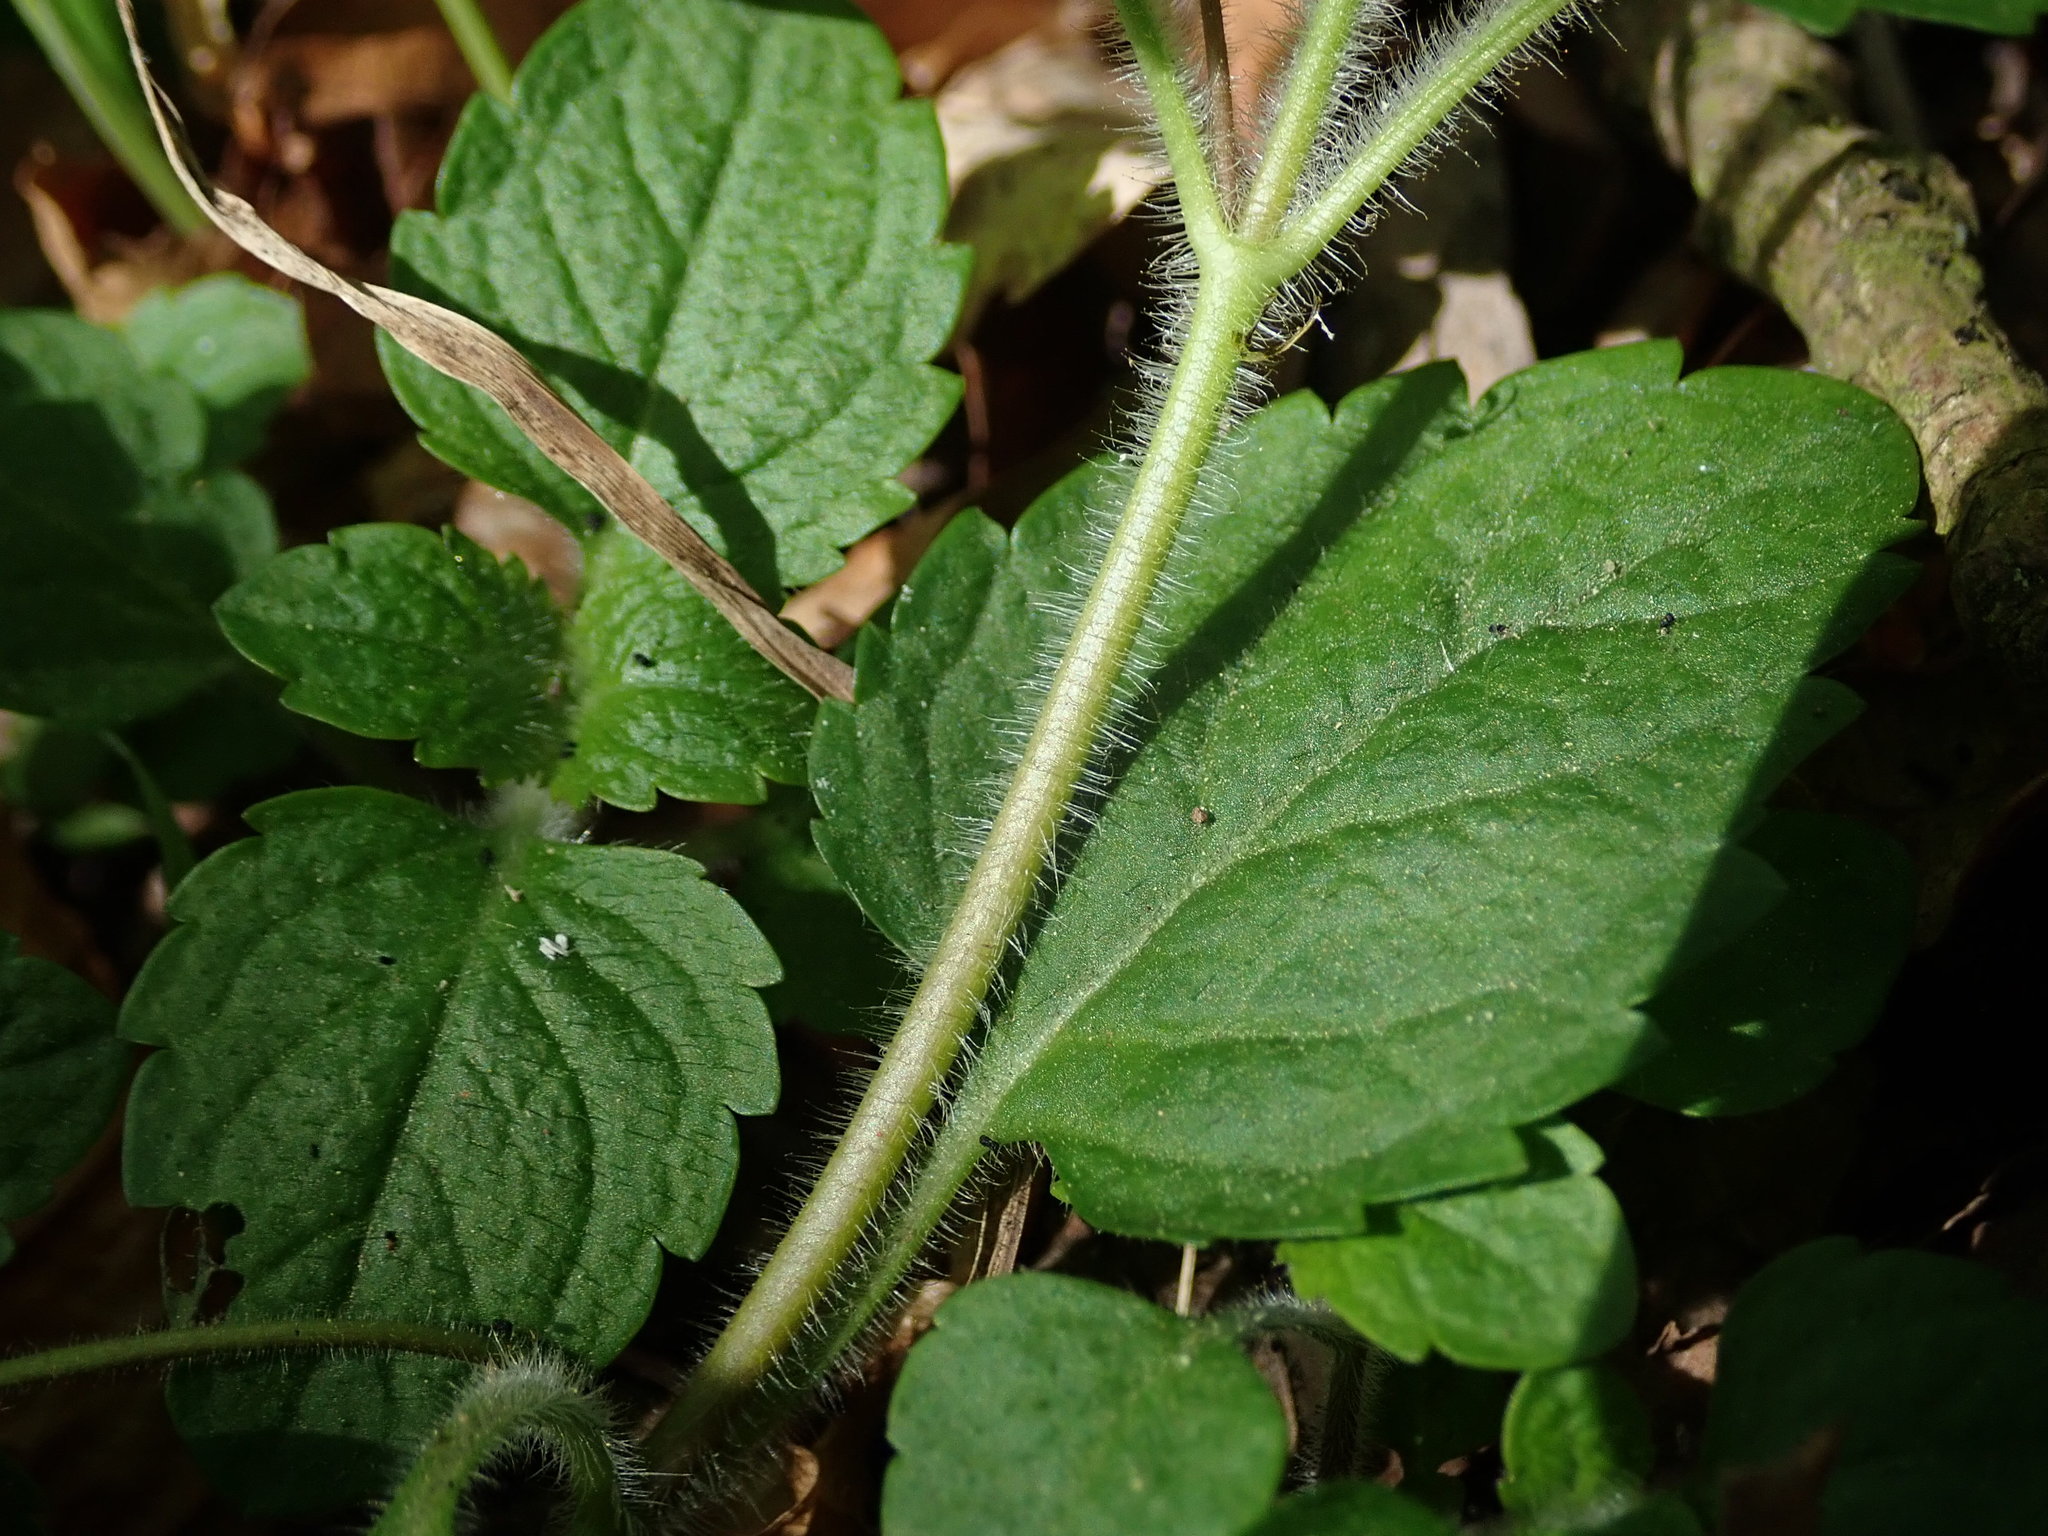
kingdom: Plantae
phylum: Tracheophyta
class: Magnoliopsida
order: Lamiales
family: Plantaginaceae
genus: Veronica
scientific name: Veronica montana
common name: Wood speedwell
